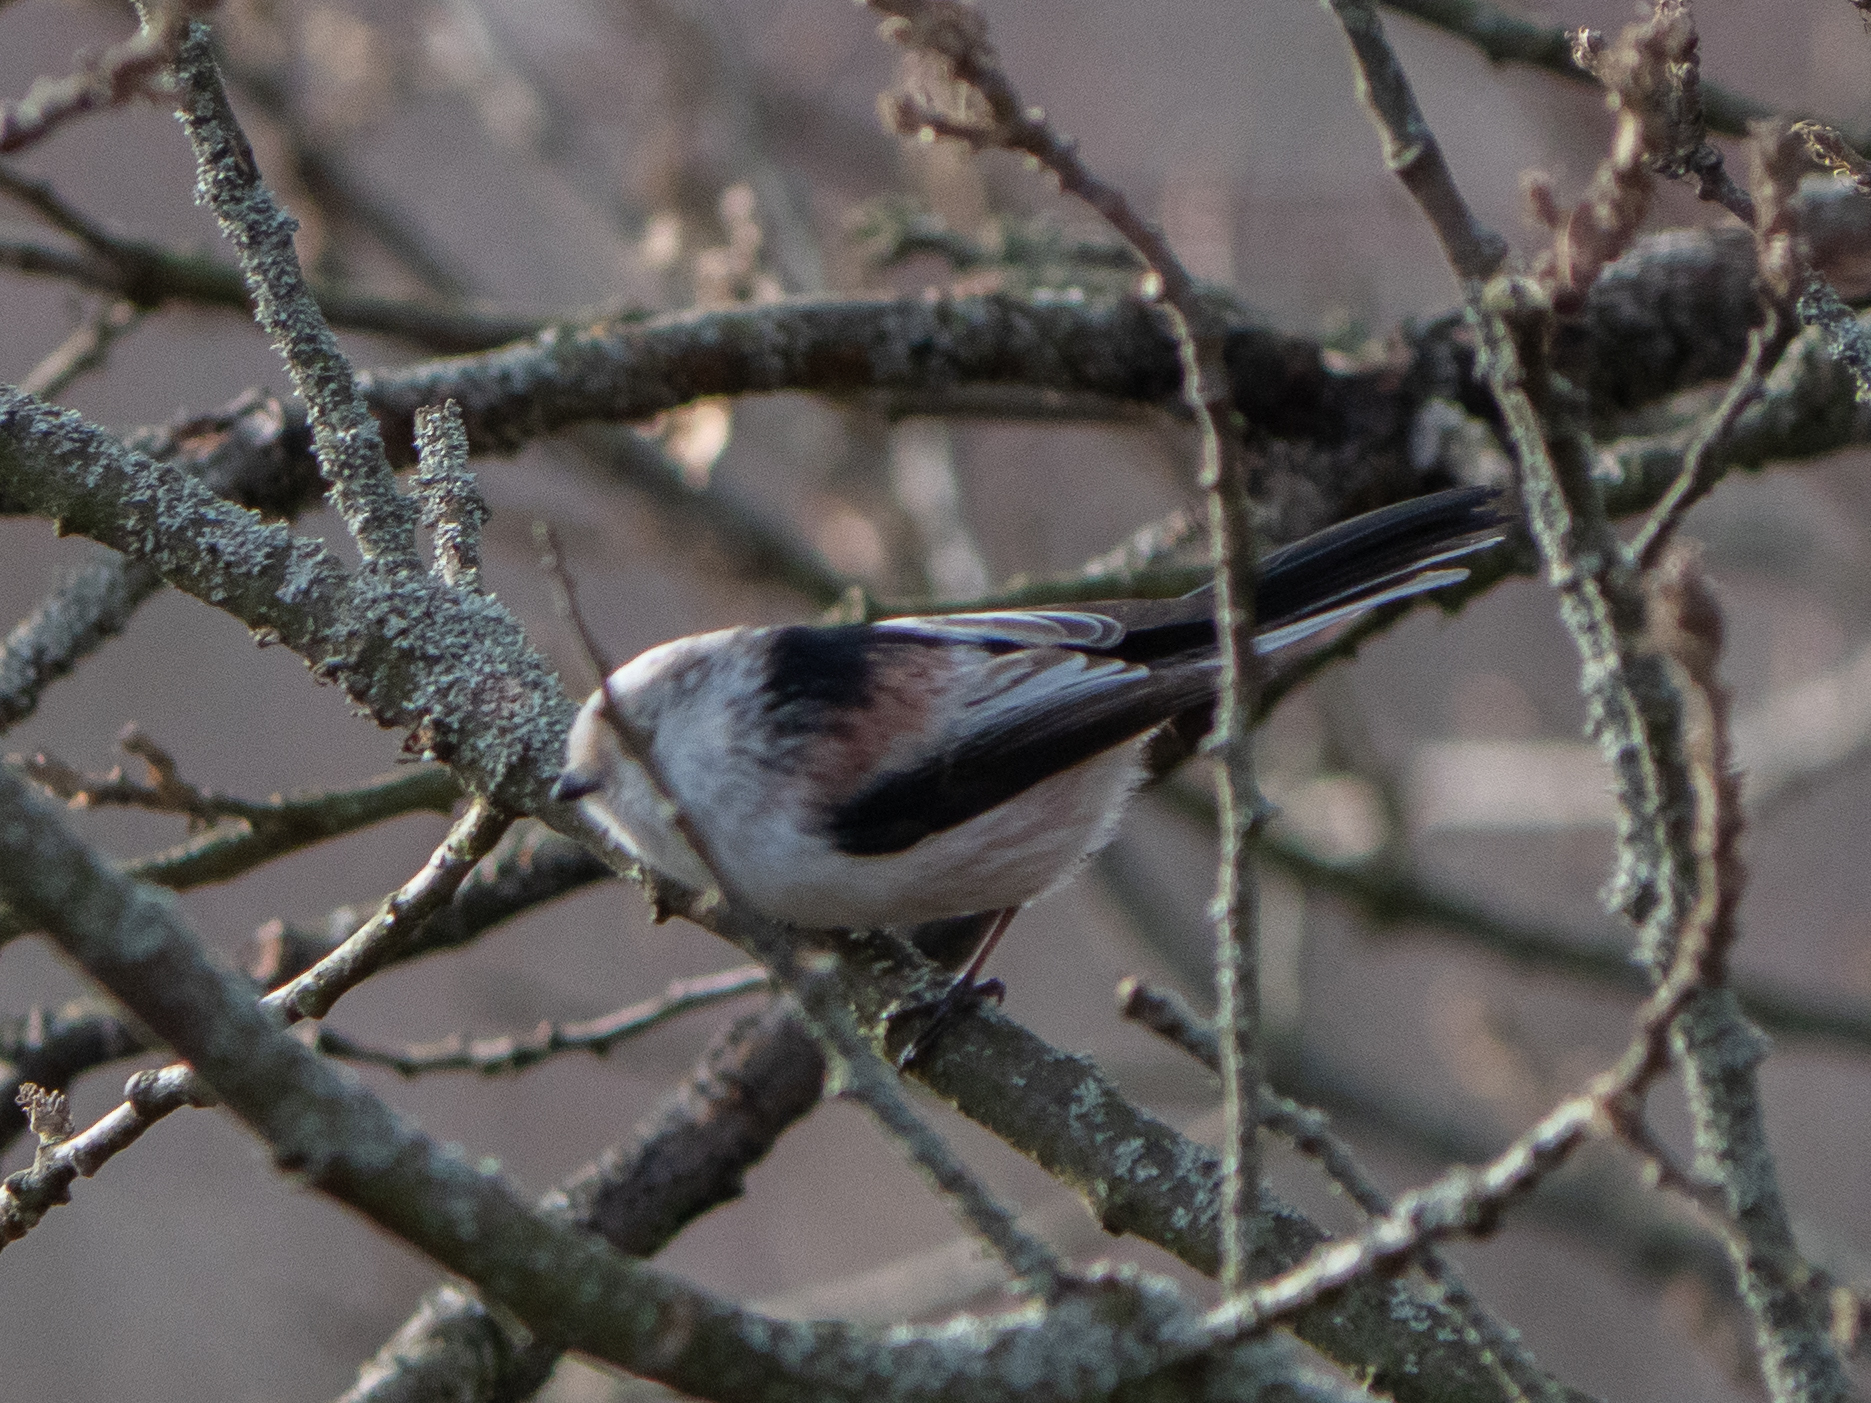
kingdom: Animalia
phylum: Chordata
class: Aves
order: Passeriformes
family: Aegithalidae
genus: Aegithalos
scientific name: Aegithalos caudatus
